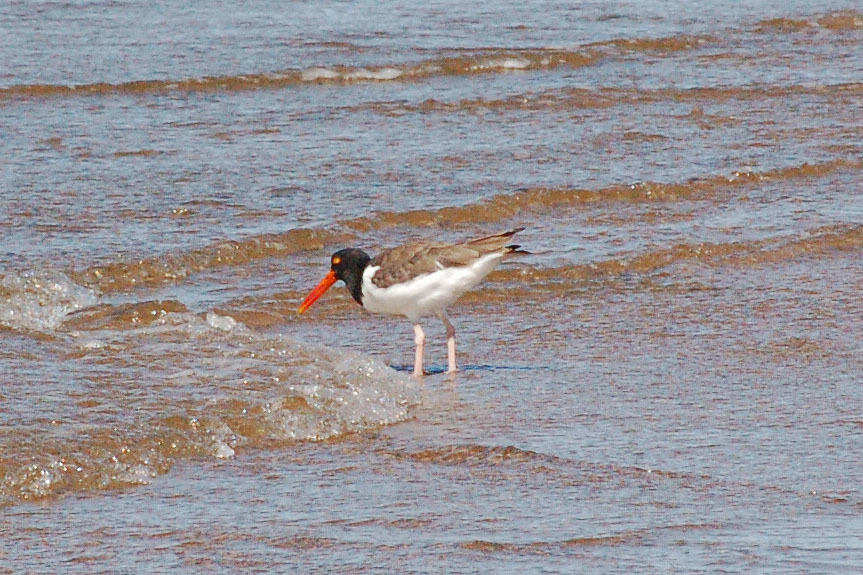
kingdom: Animalia
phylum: Chordata
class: Aves
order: Charadriiformes
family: Haematopodidae
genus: Haematopus
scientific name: Haematopus palliatus
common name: American oystercatcher
